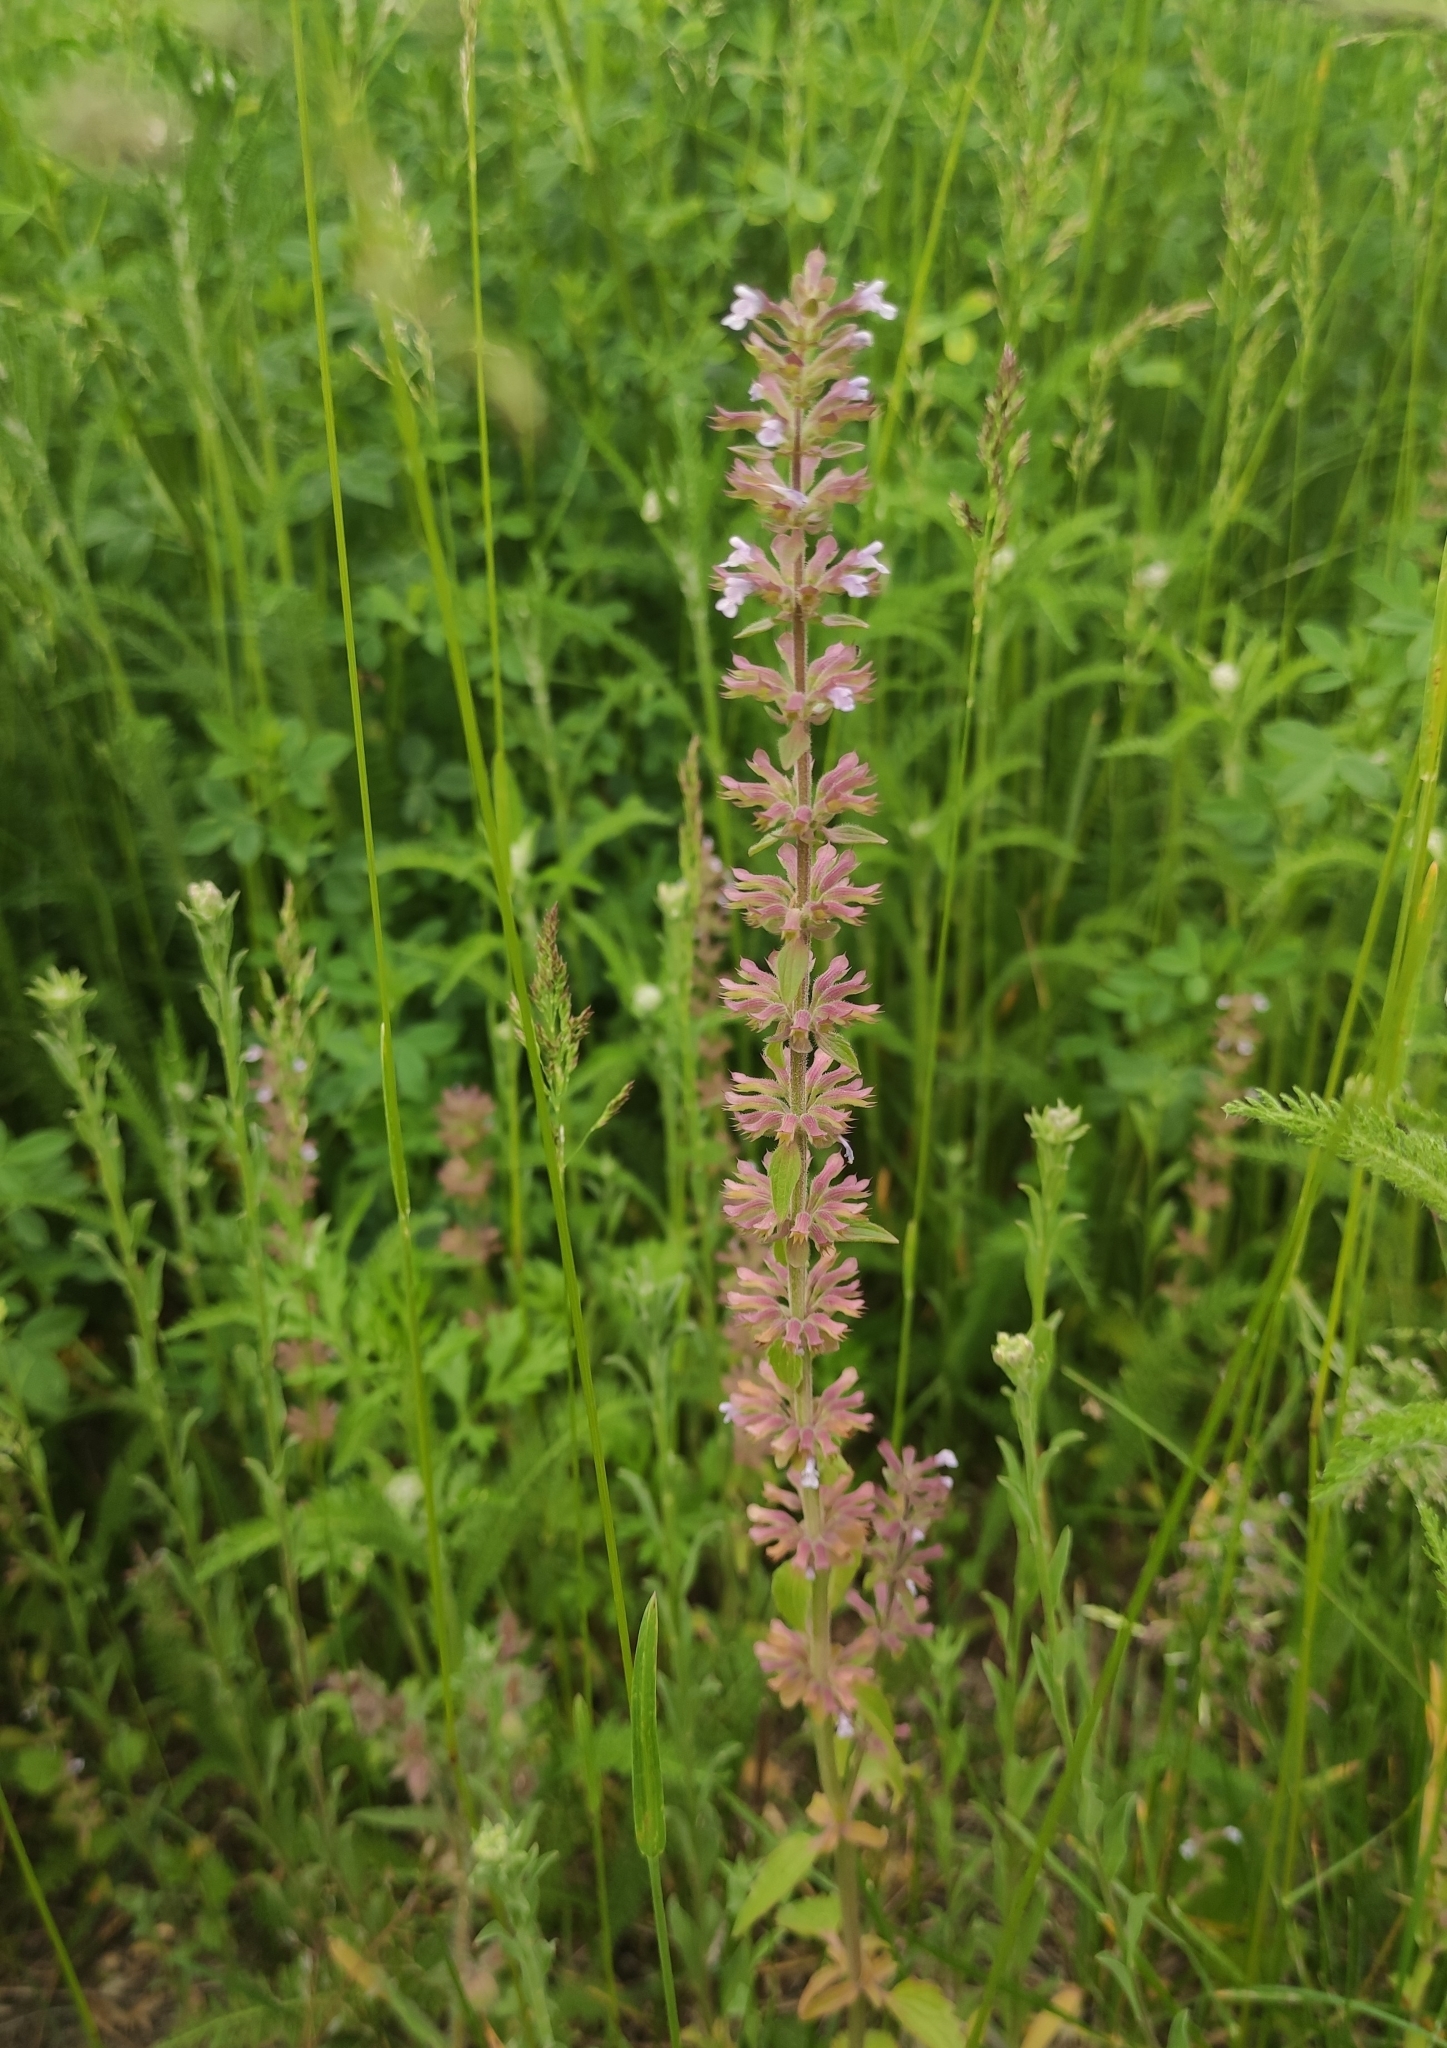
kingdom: Plantae
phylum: Tracheophyta
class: Magnoliopsida
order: Lamiales
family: Lamiaceae
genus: Dracocephalum
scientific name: Dracocephalum thymiflorum
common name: Thymeleaf dragonhead
